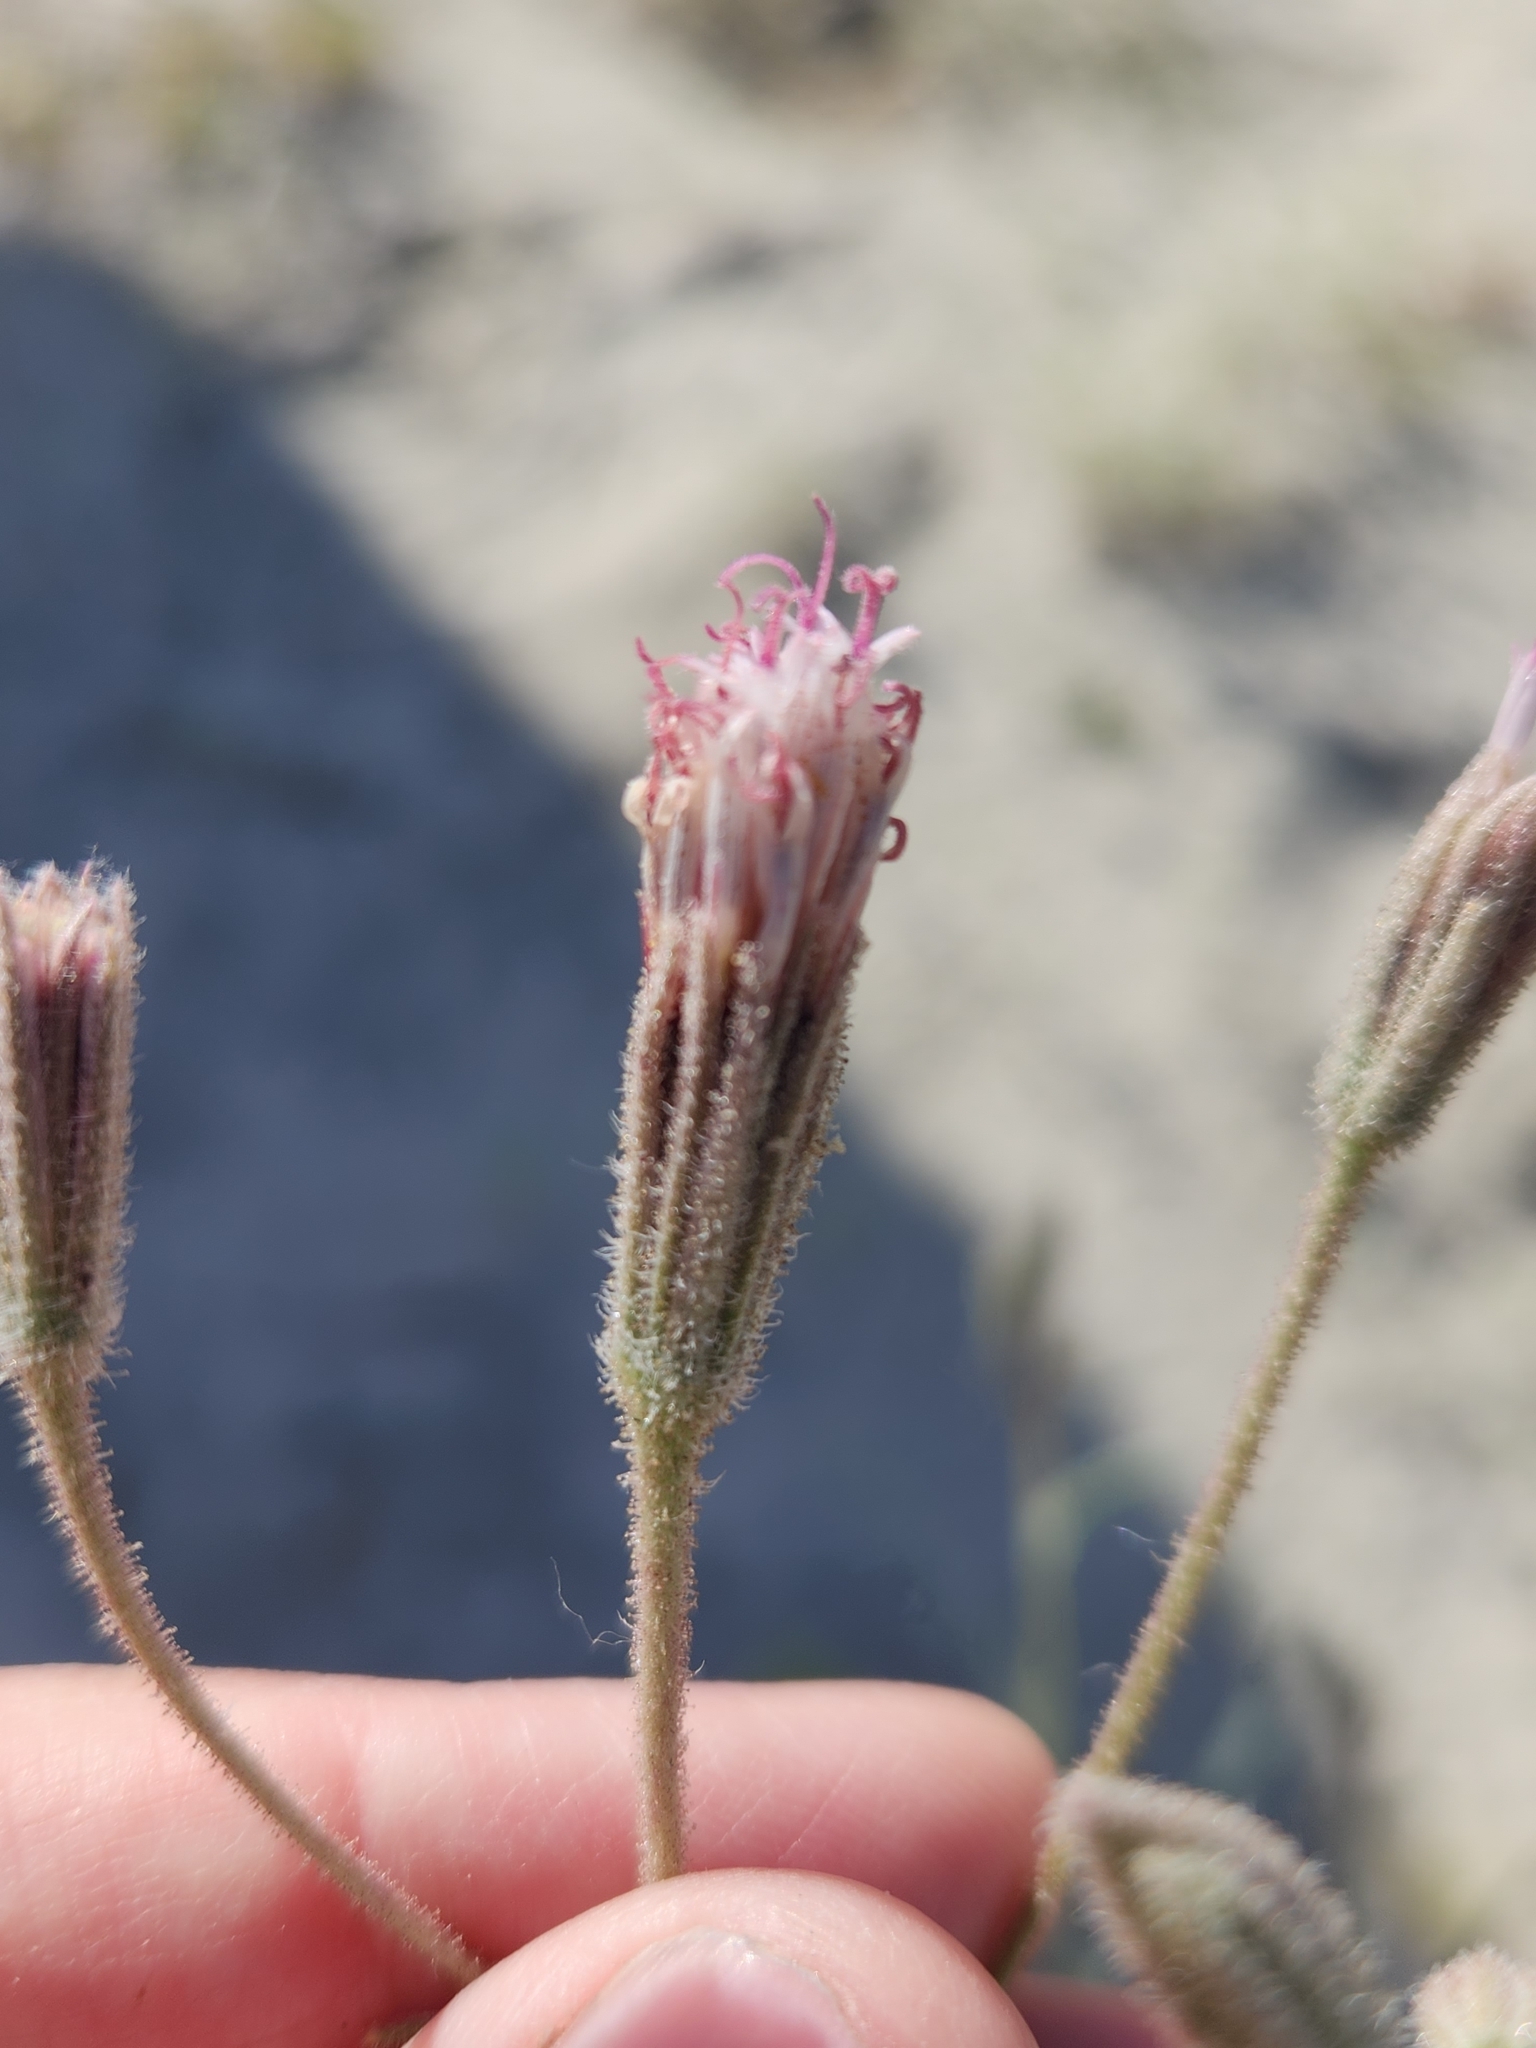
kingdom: Plantae
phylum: Tracheophyta
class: Magnoliopsida
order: Asterales
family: Asteraceae
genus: Palafoxia
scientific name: Palafoxia arida
